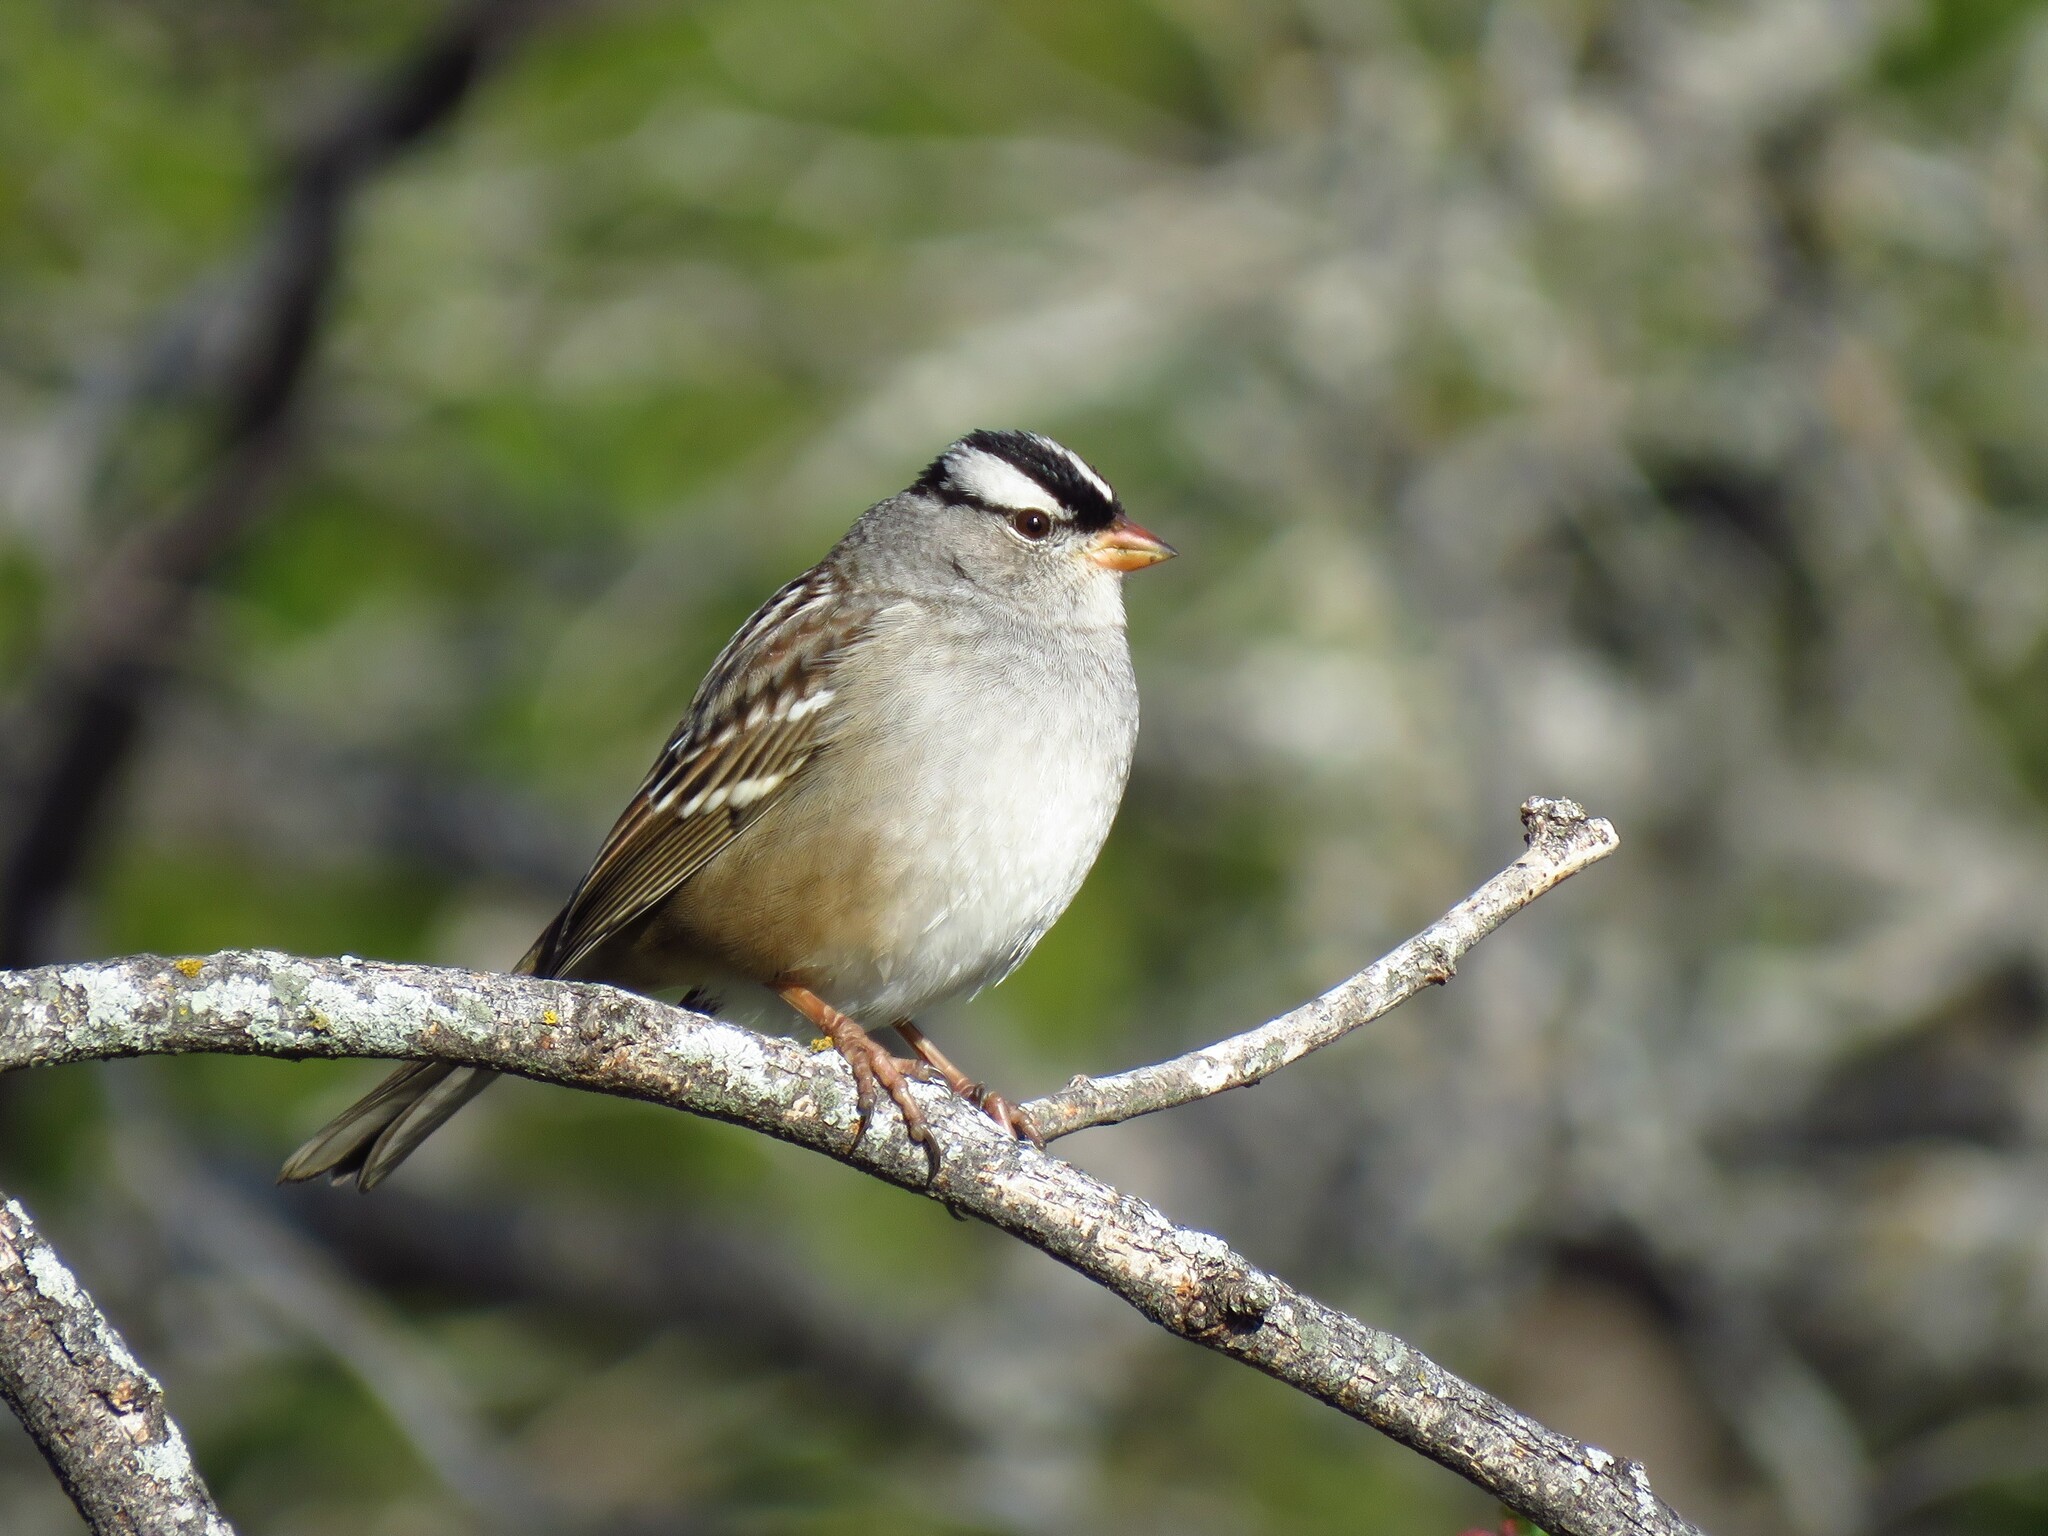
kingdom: Animalia
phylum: Chordata
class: Aves
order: Passeriformes
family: Passerellidae
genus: Zonotrichia
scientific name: Zonotrichia leucophrys
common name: White-crowned sparrow
